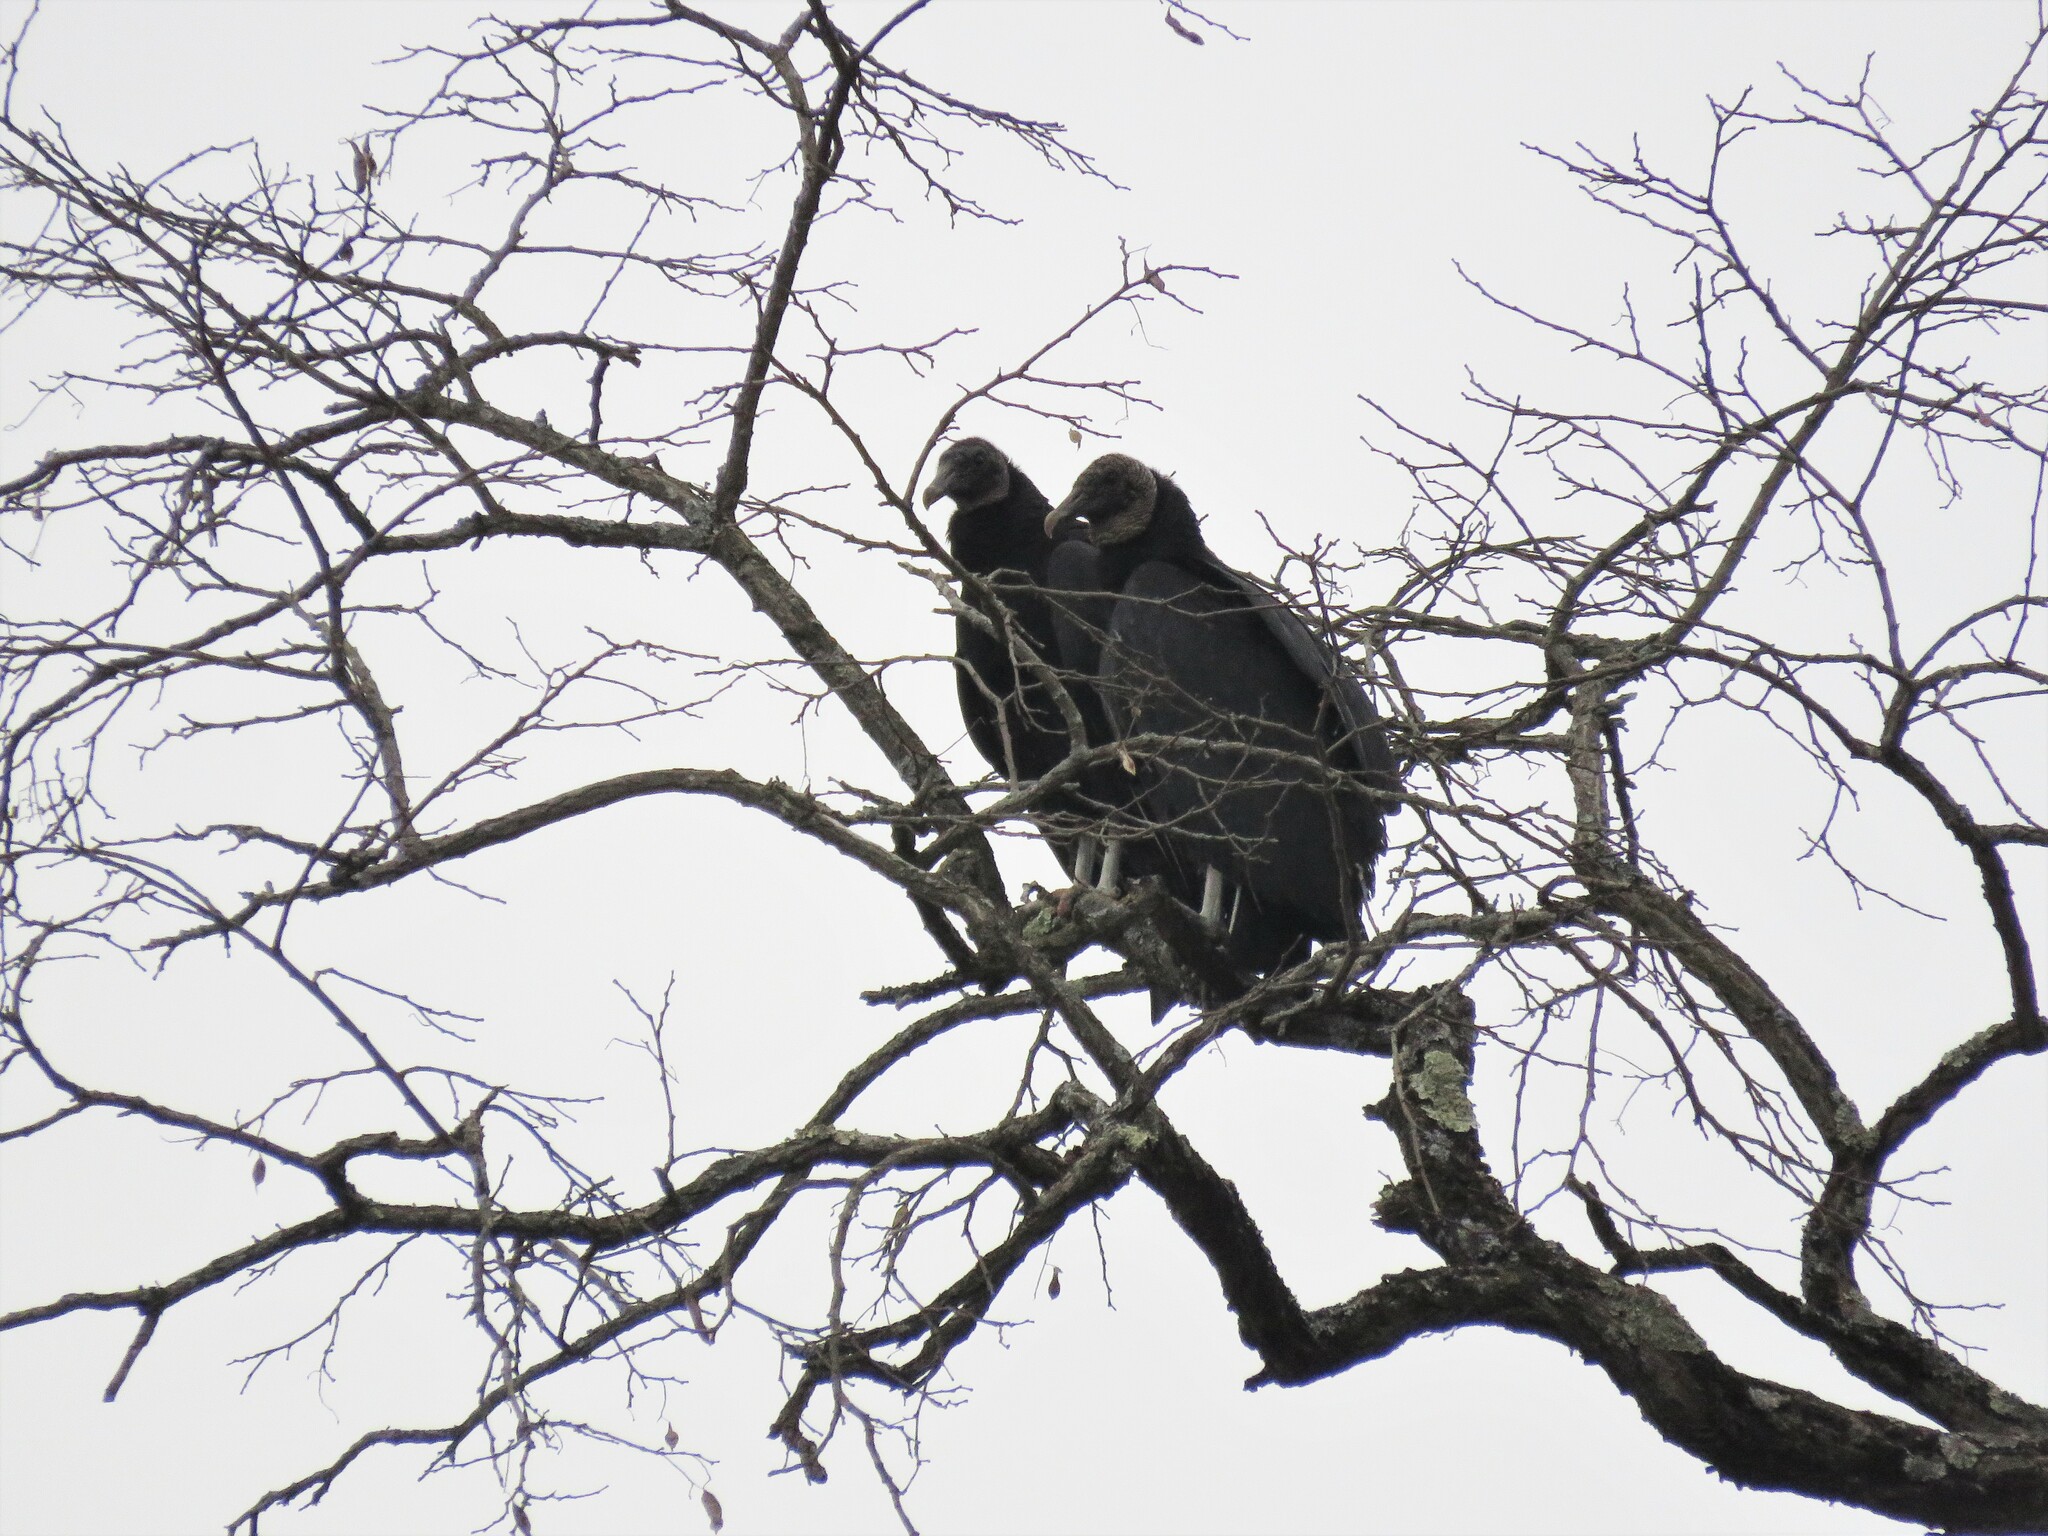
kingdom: Animalia
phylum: Chordata
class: Aves
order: Accipitriformes
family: Cathartidae
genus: Coragyps
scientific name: Coragyps atratus
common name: Black vulture
